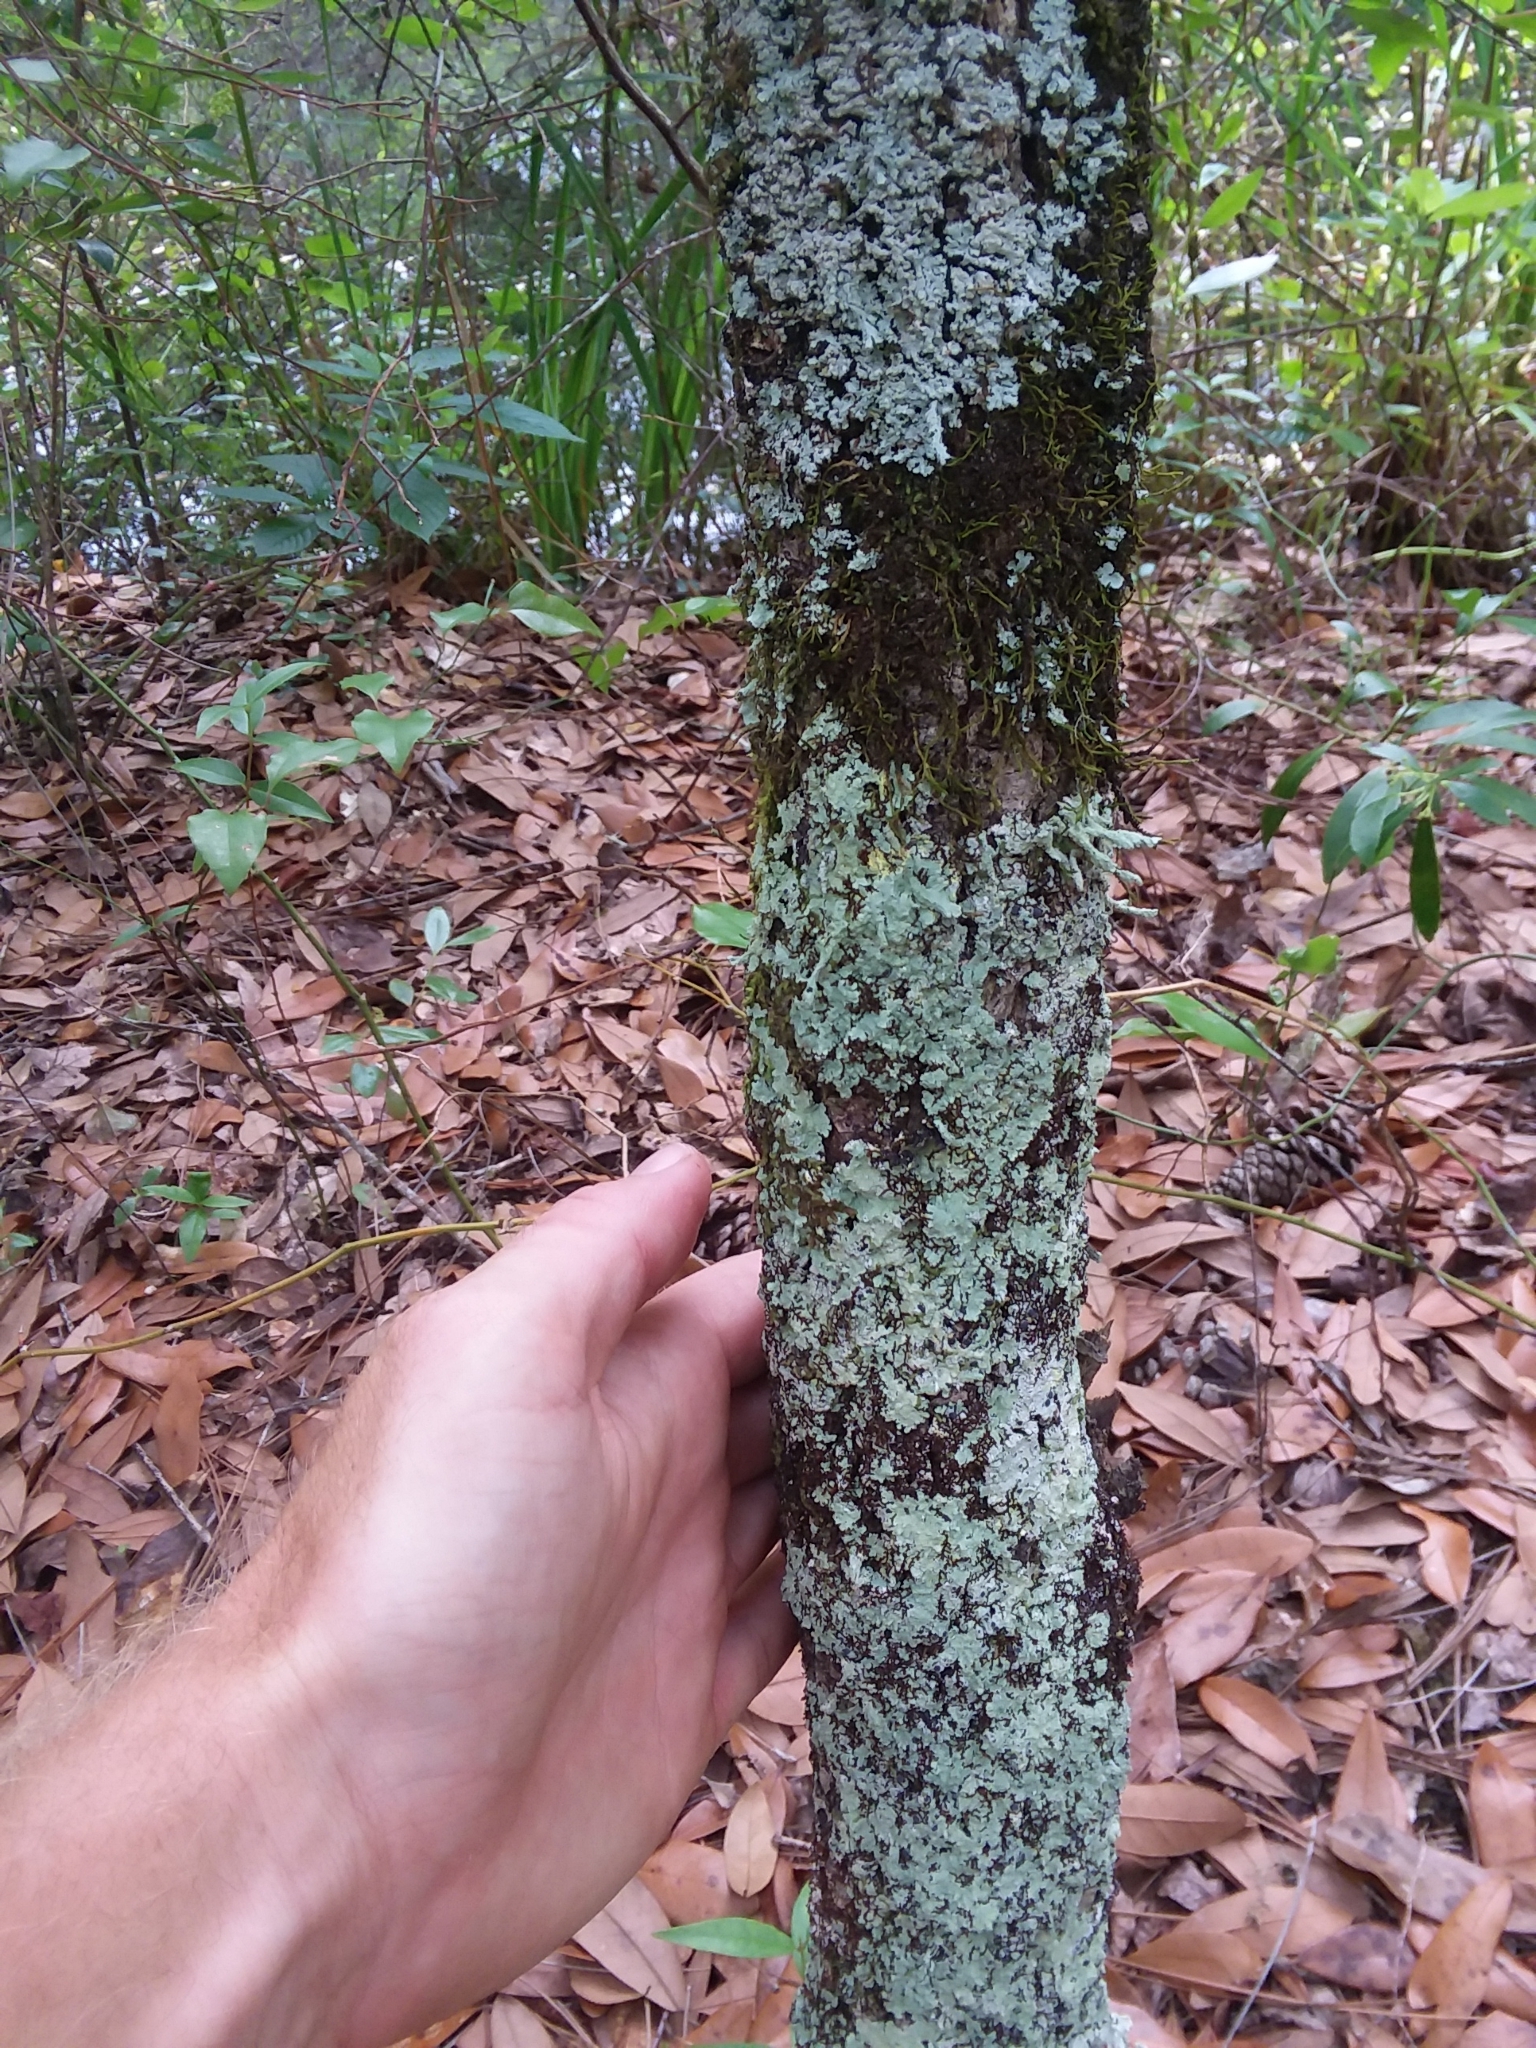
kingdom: Plantae
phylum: Tracheophyta
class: Magnoliopsida
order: Fagales
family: Fagaceae
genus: Quercus
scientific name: Quercus virginiana
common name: Southern live oak
